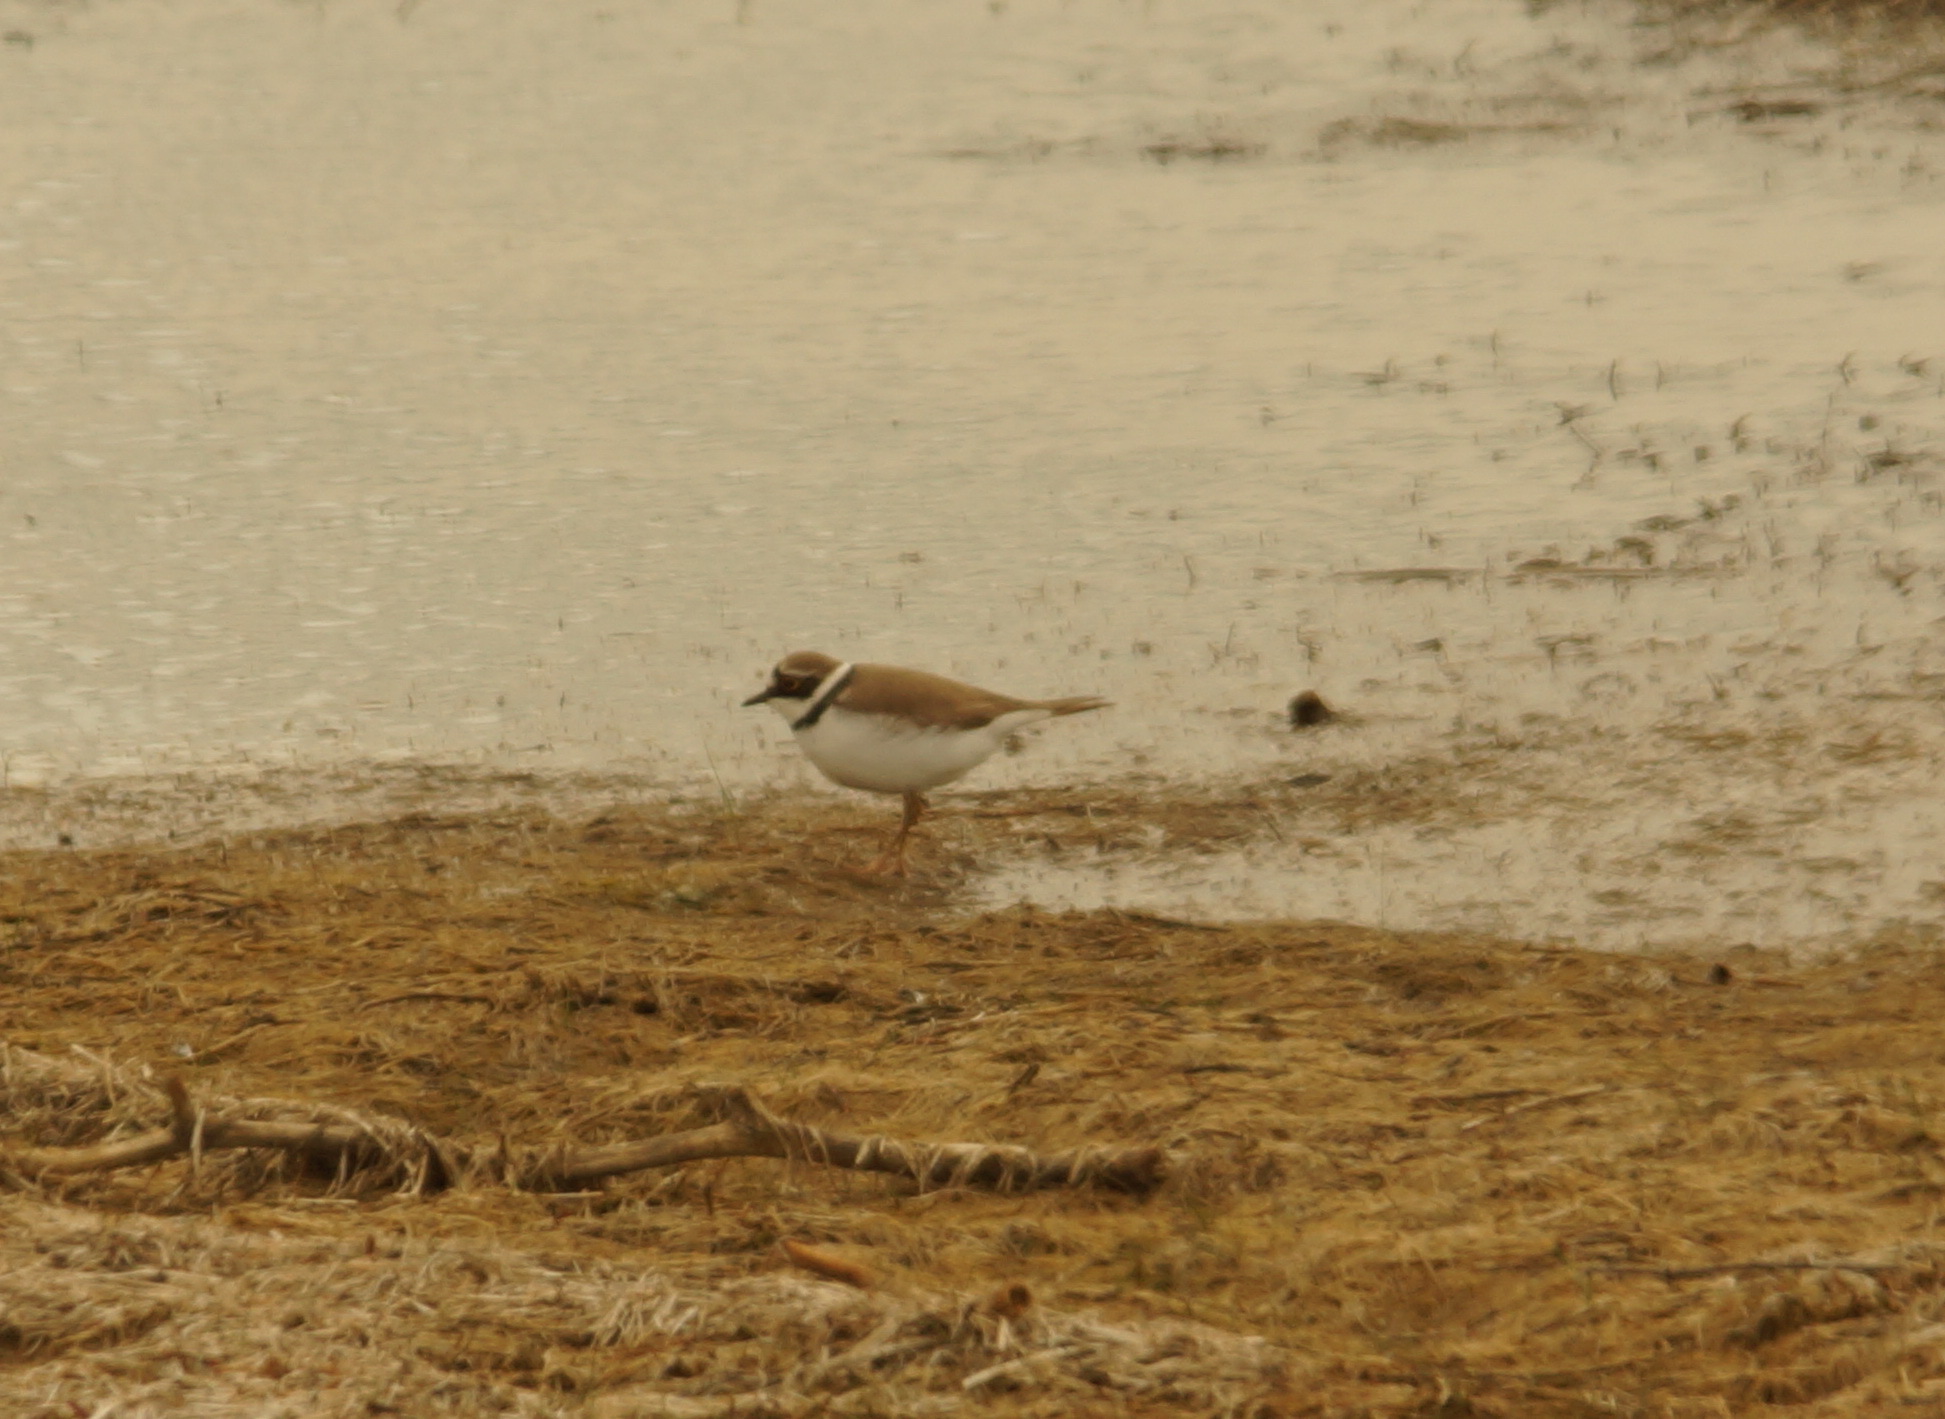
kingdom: Animalia
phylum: Chordata
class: Aves
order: Charadriiformes
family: Charadriidae
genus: Charadrius
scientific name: Charadrius dubius
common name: Little ringed plover
